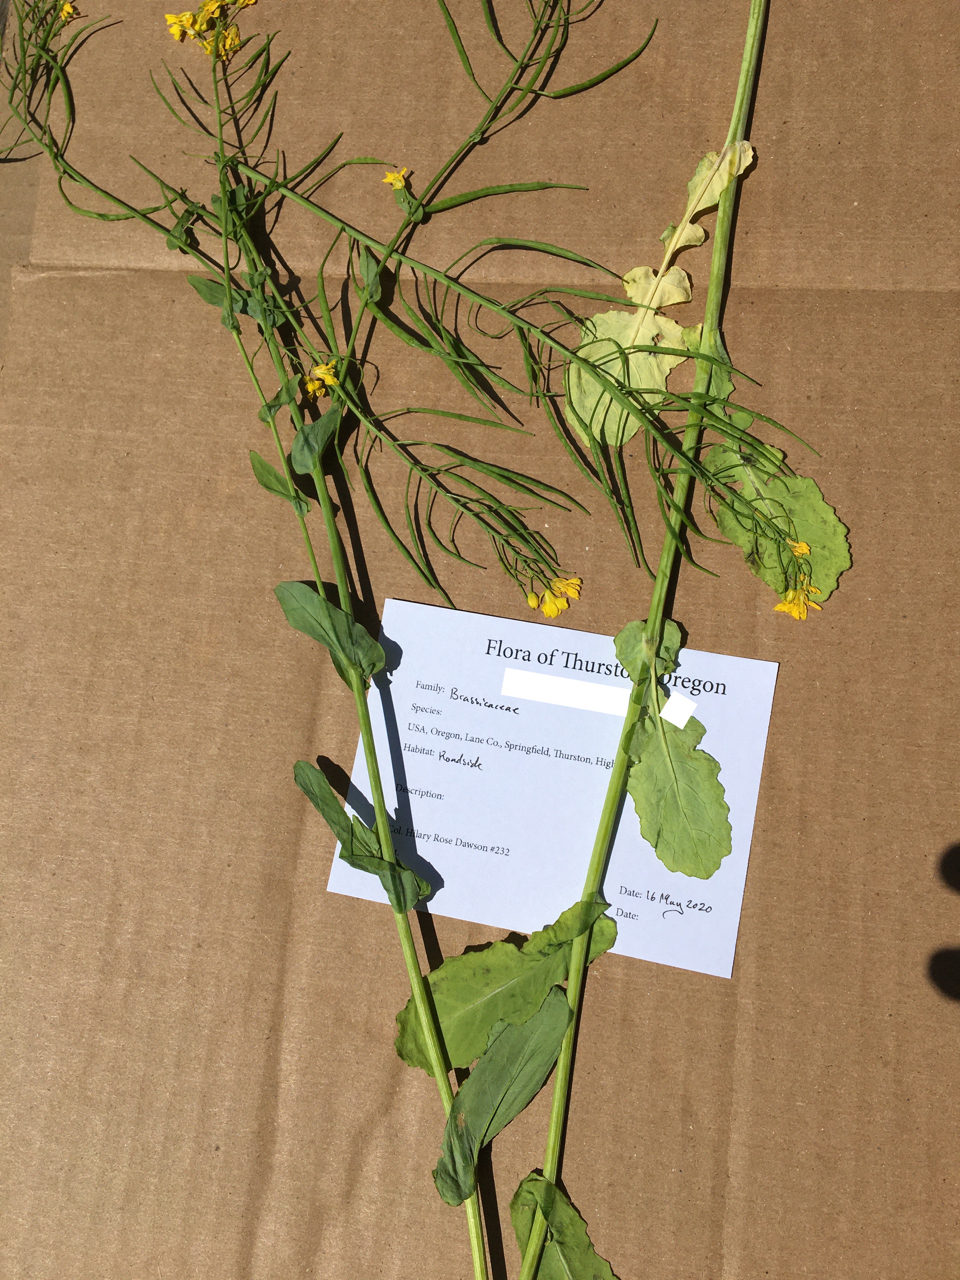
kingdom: Plantae
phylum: Tracheophyta
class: Magnoliopsida
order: Brassicales
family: Brassicaceae
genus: Brassica
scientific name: Brassica rapa
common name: Field mustard
